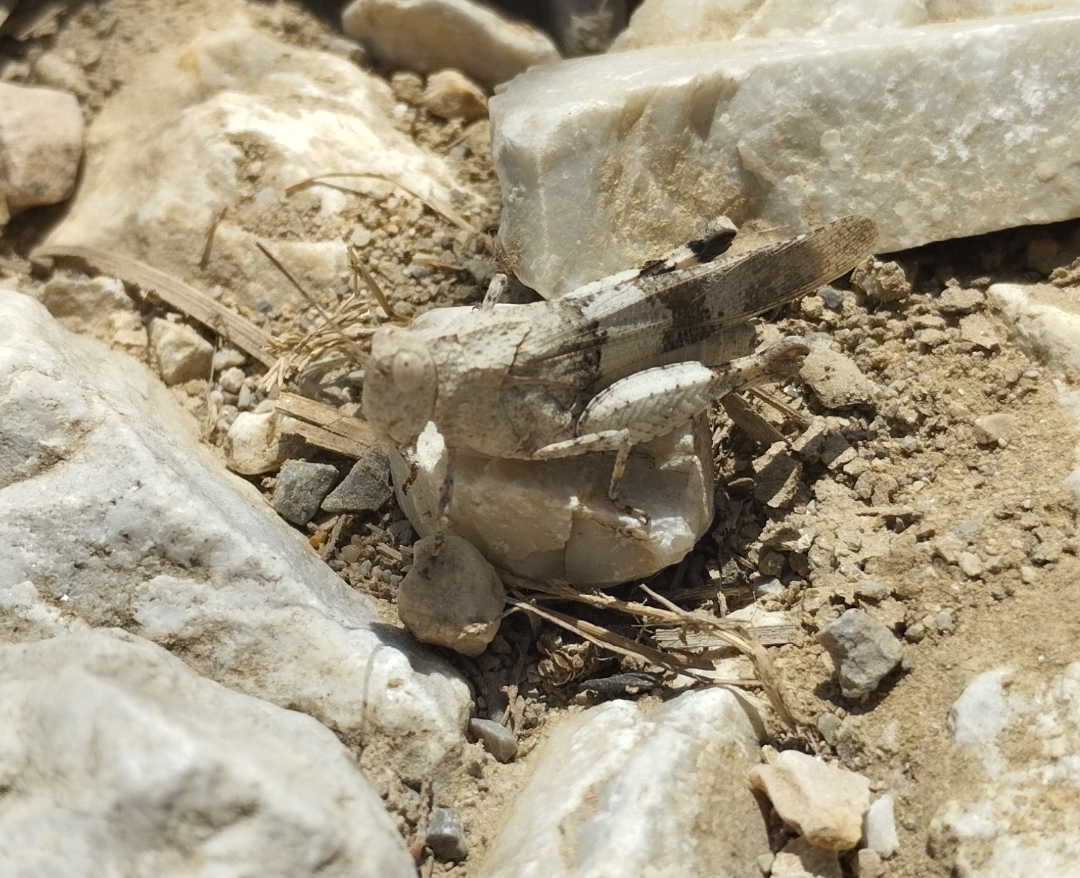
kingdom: Animalia
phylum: Arthropoda
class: Insecta
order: Orthoptera
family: Acrididae
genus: Oedipoda
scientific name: Oedipoda caerulescens
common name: Blue-winged grasshopper
